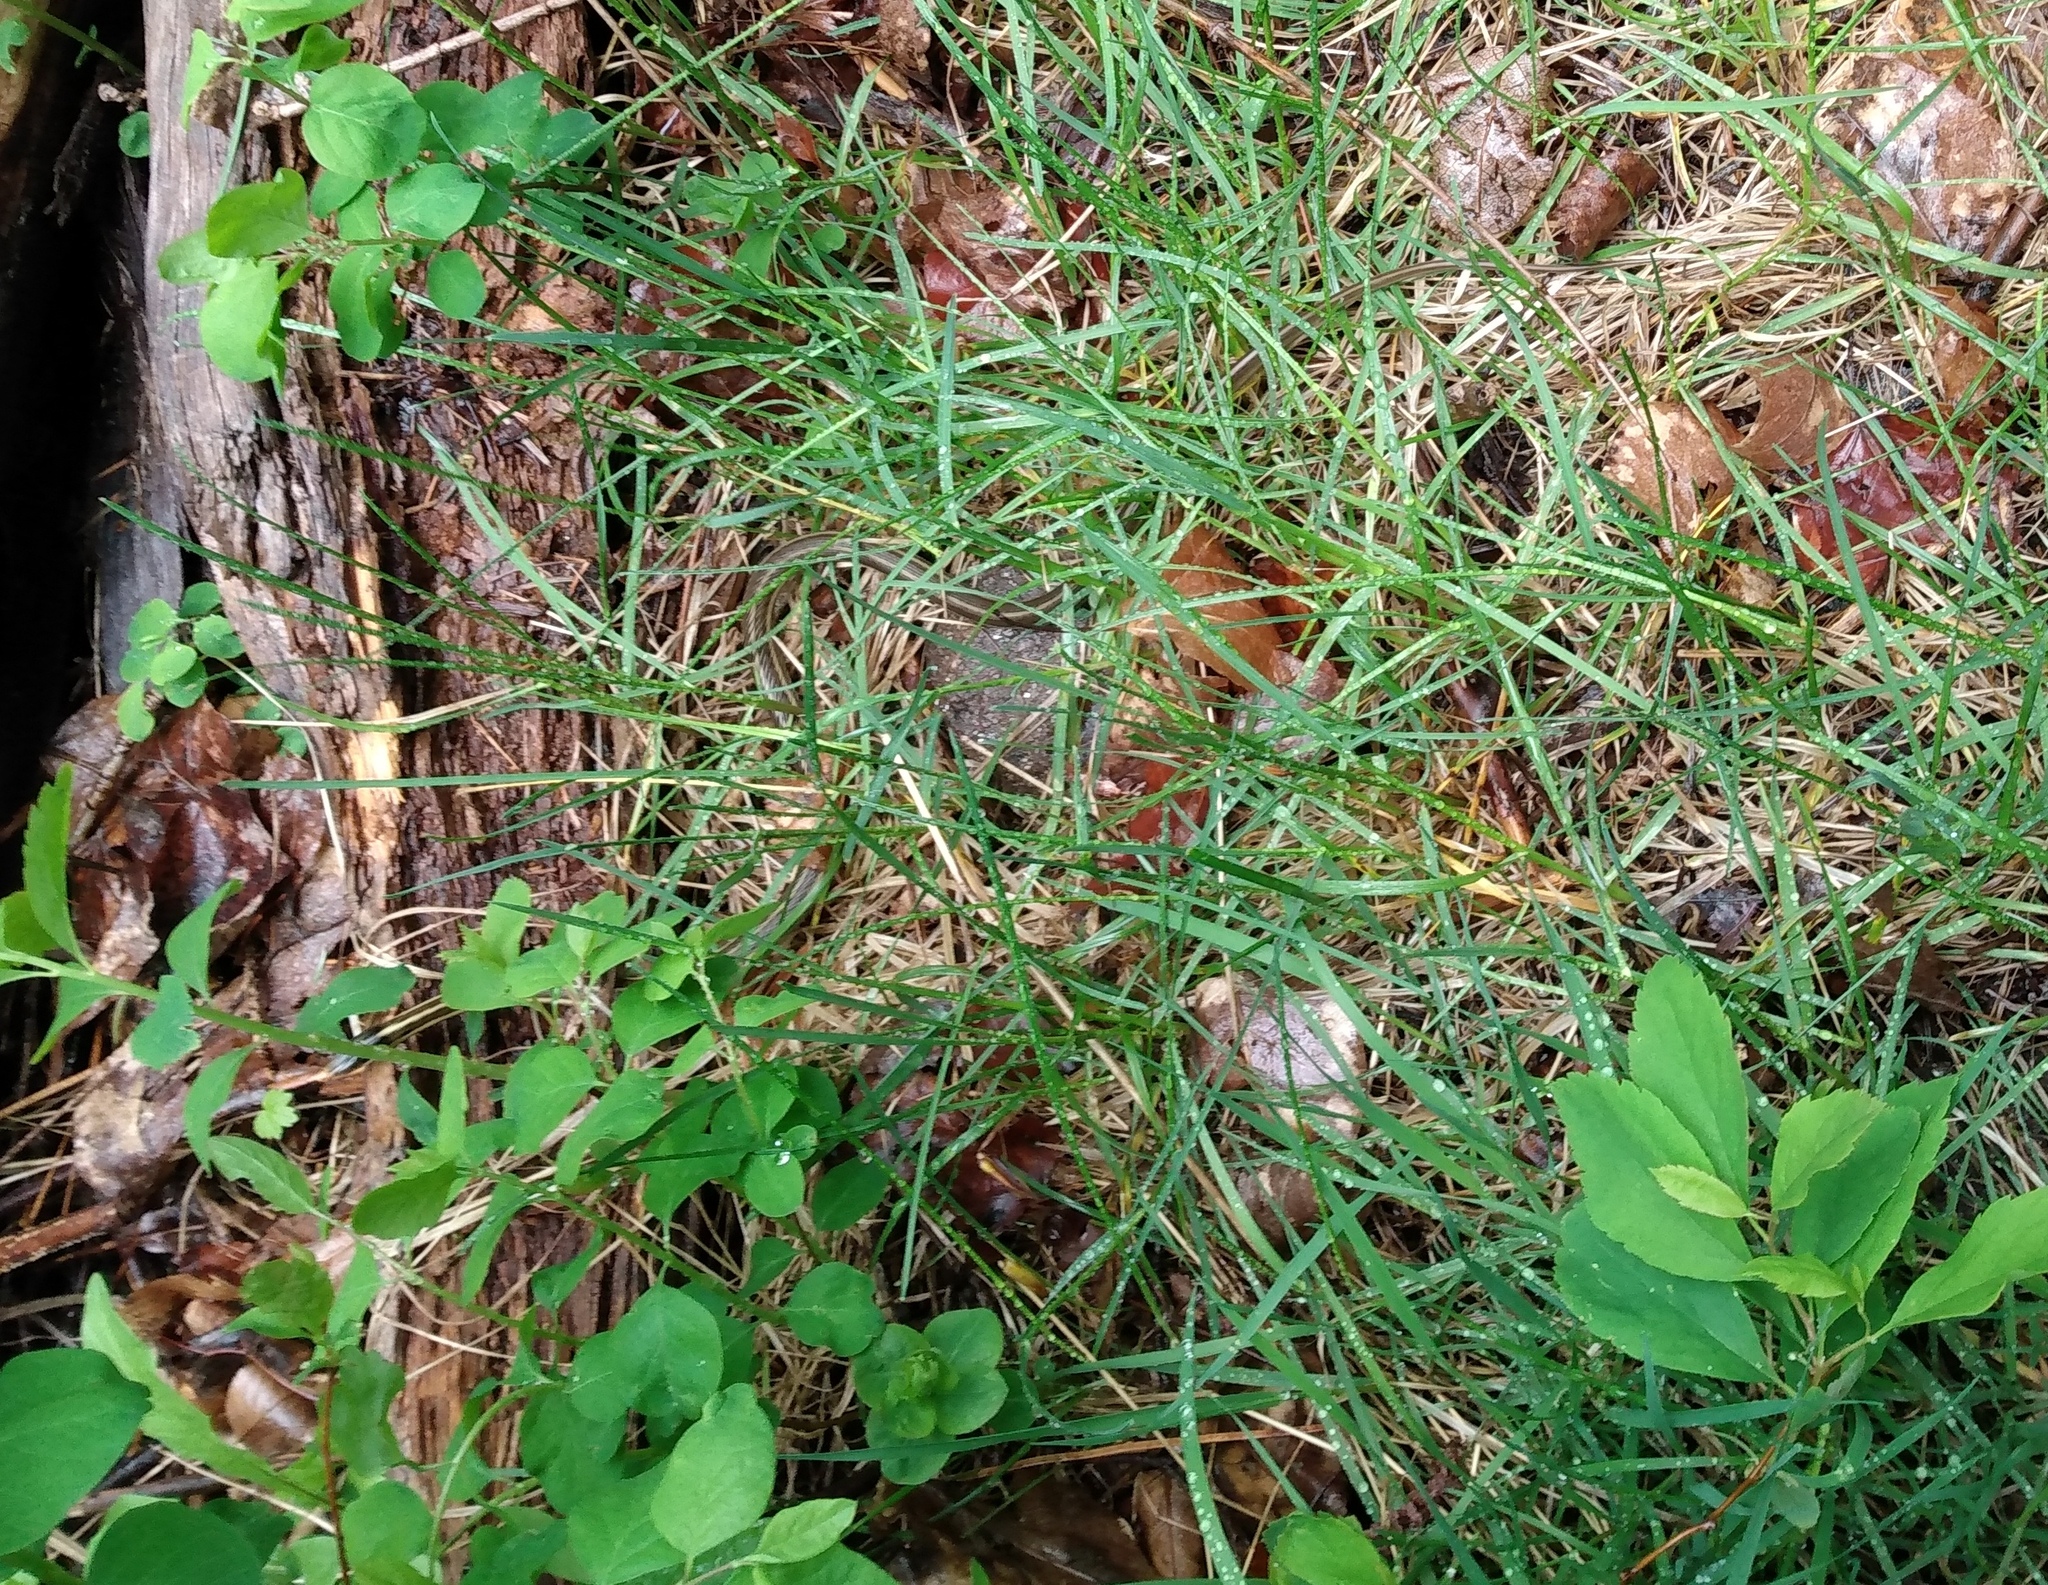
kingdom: Animalia
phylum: Chordata
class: Squamata
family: Colubridae
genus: Thamnophis
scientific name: Thamnophis elegans
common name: Western terrestrial garter snake
